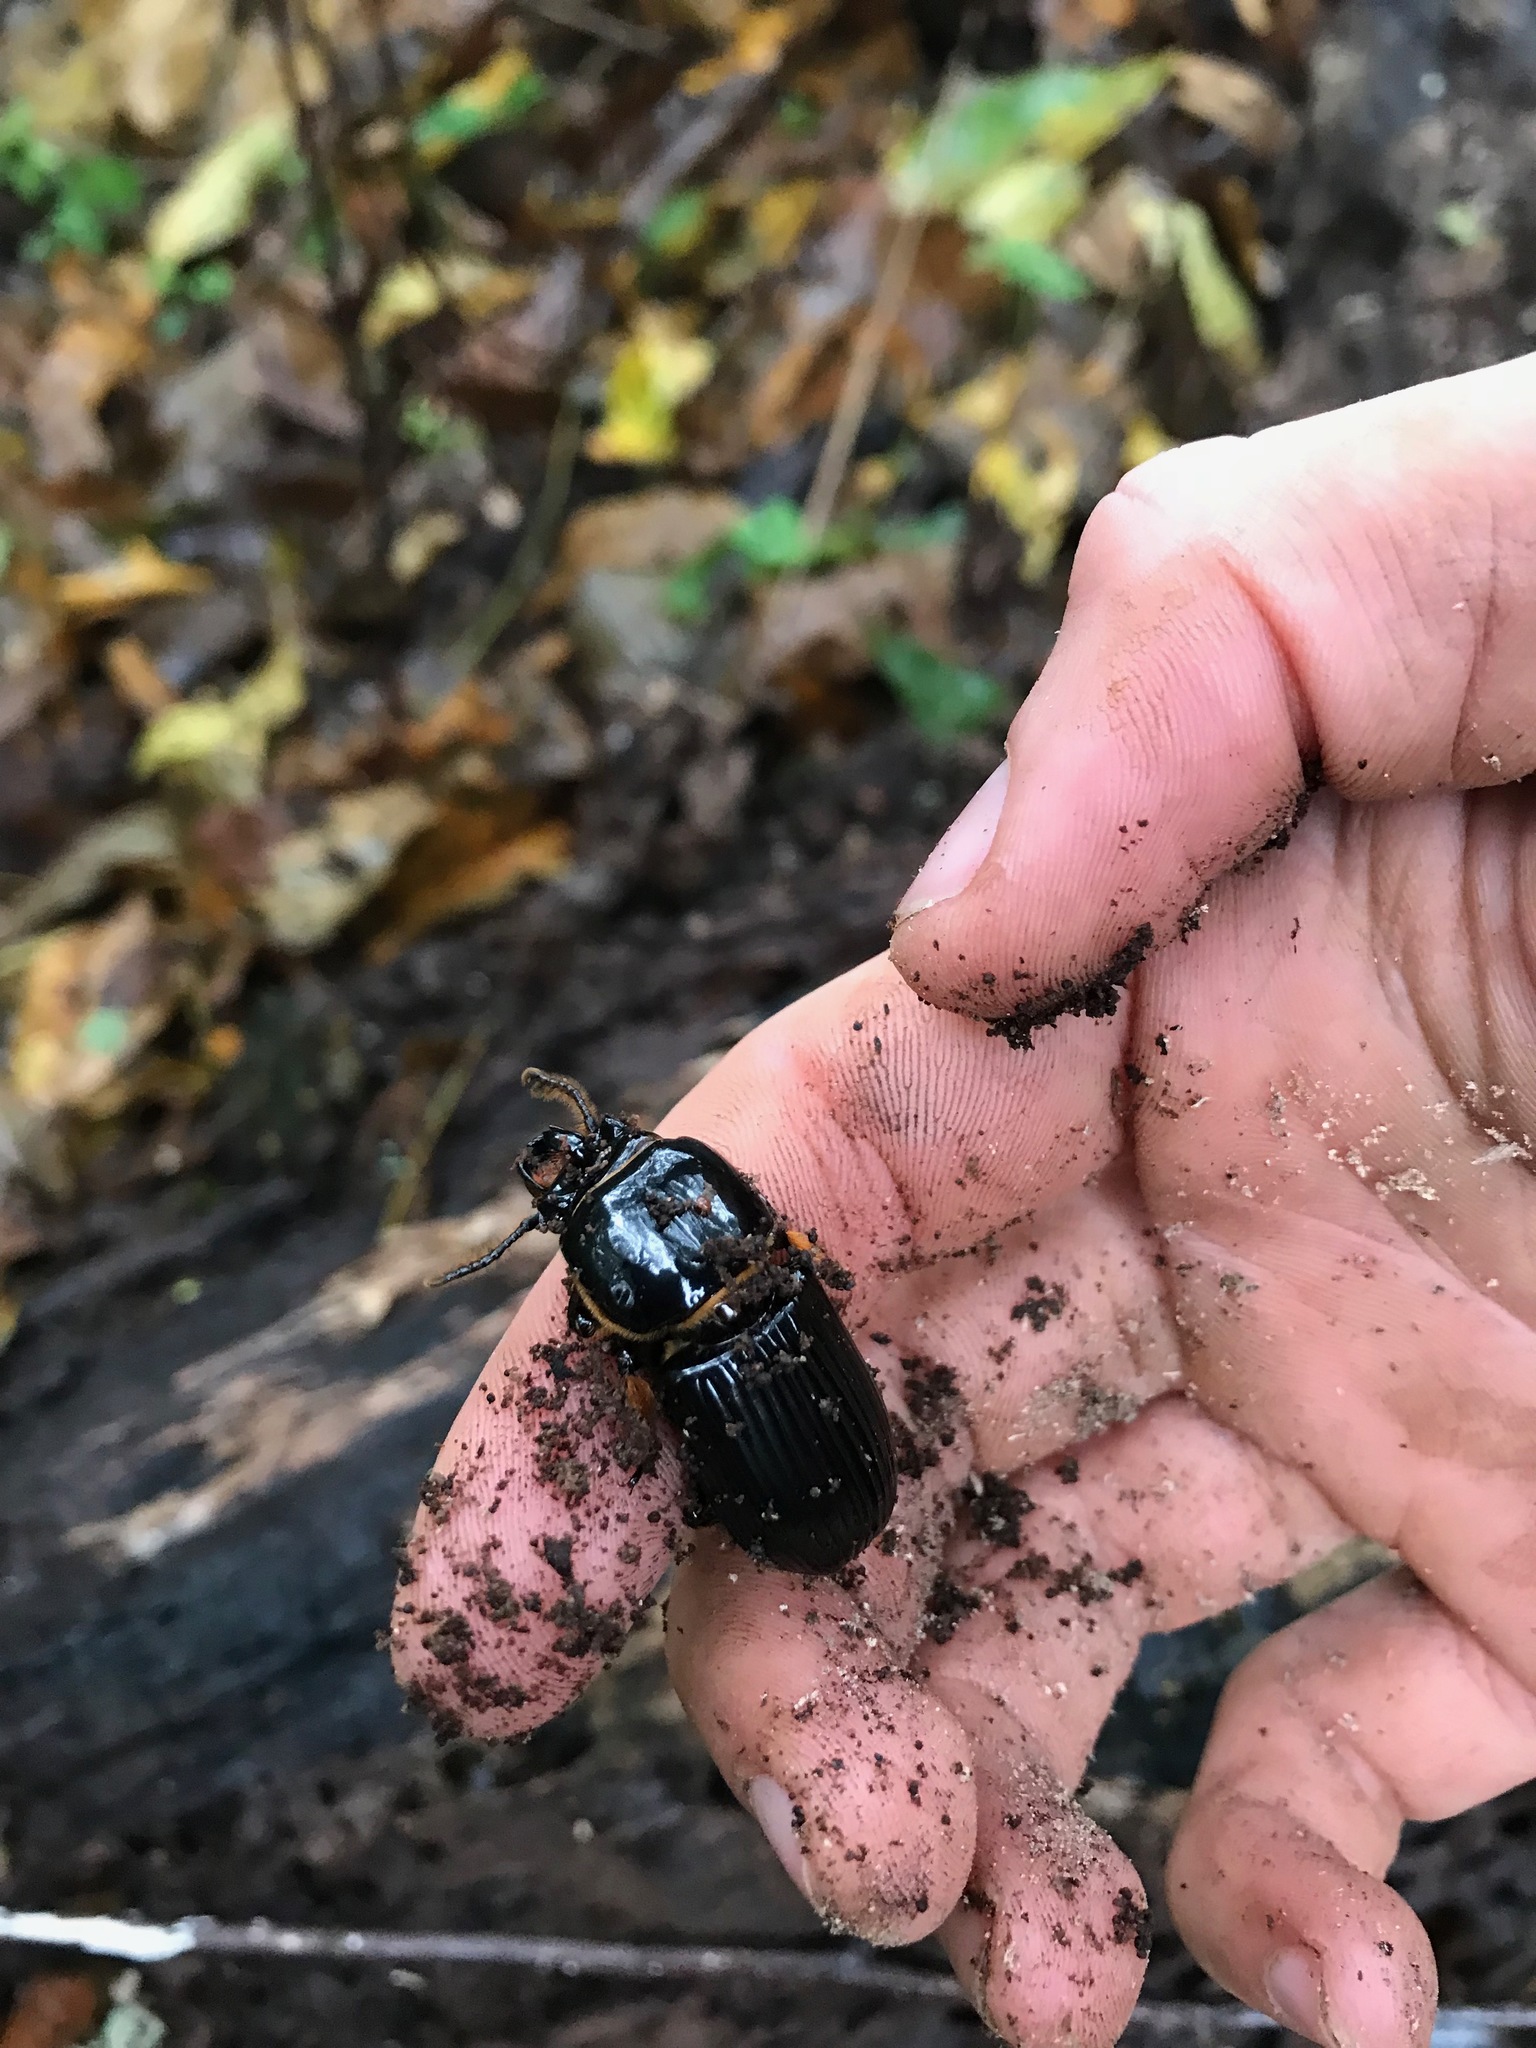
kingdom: Animalia
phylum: Arthropoda
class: Insecta
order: Coleoptera
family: Passalidae
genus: Odontotaenius
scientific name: Odontotaenius disjunctus
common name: Patent leather beetle
